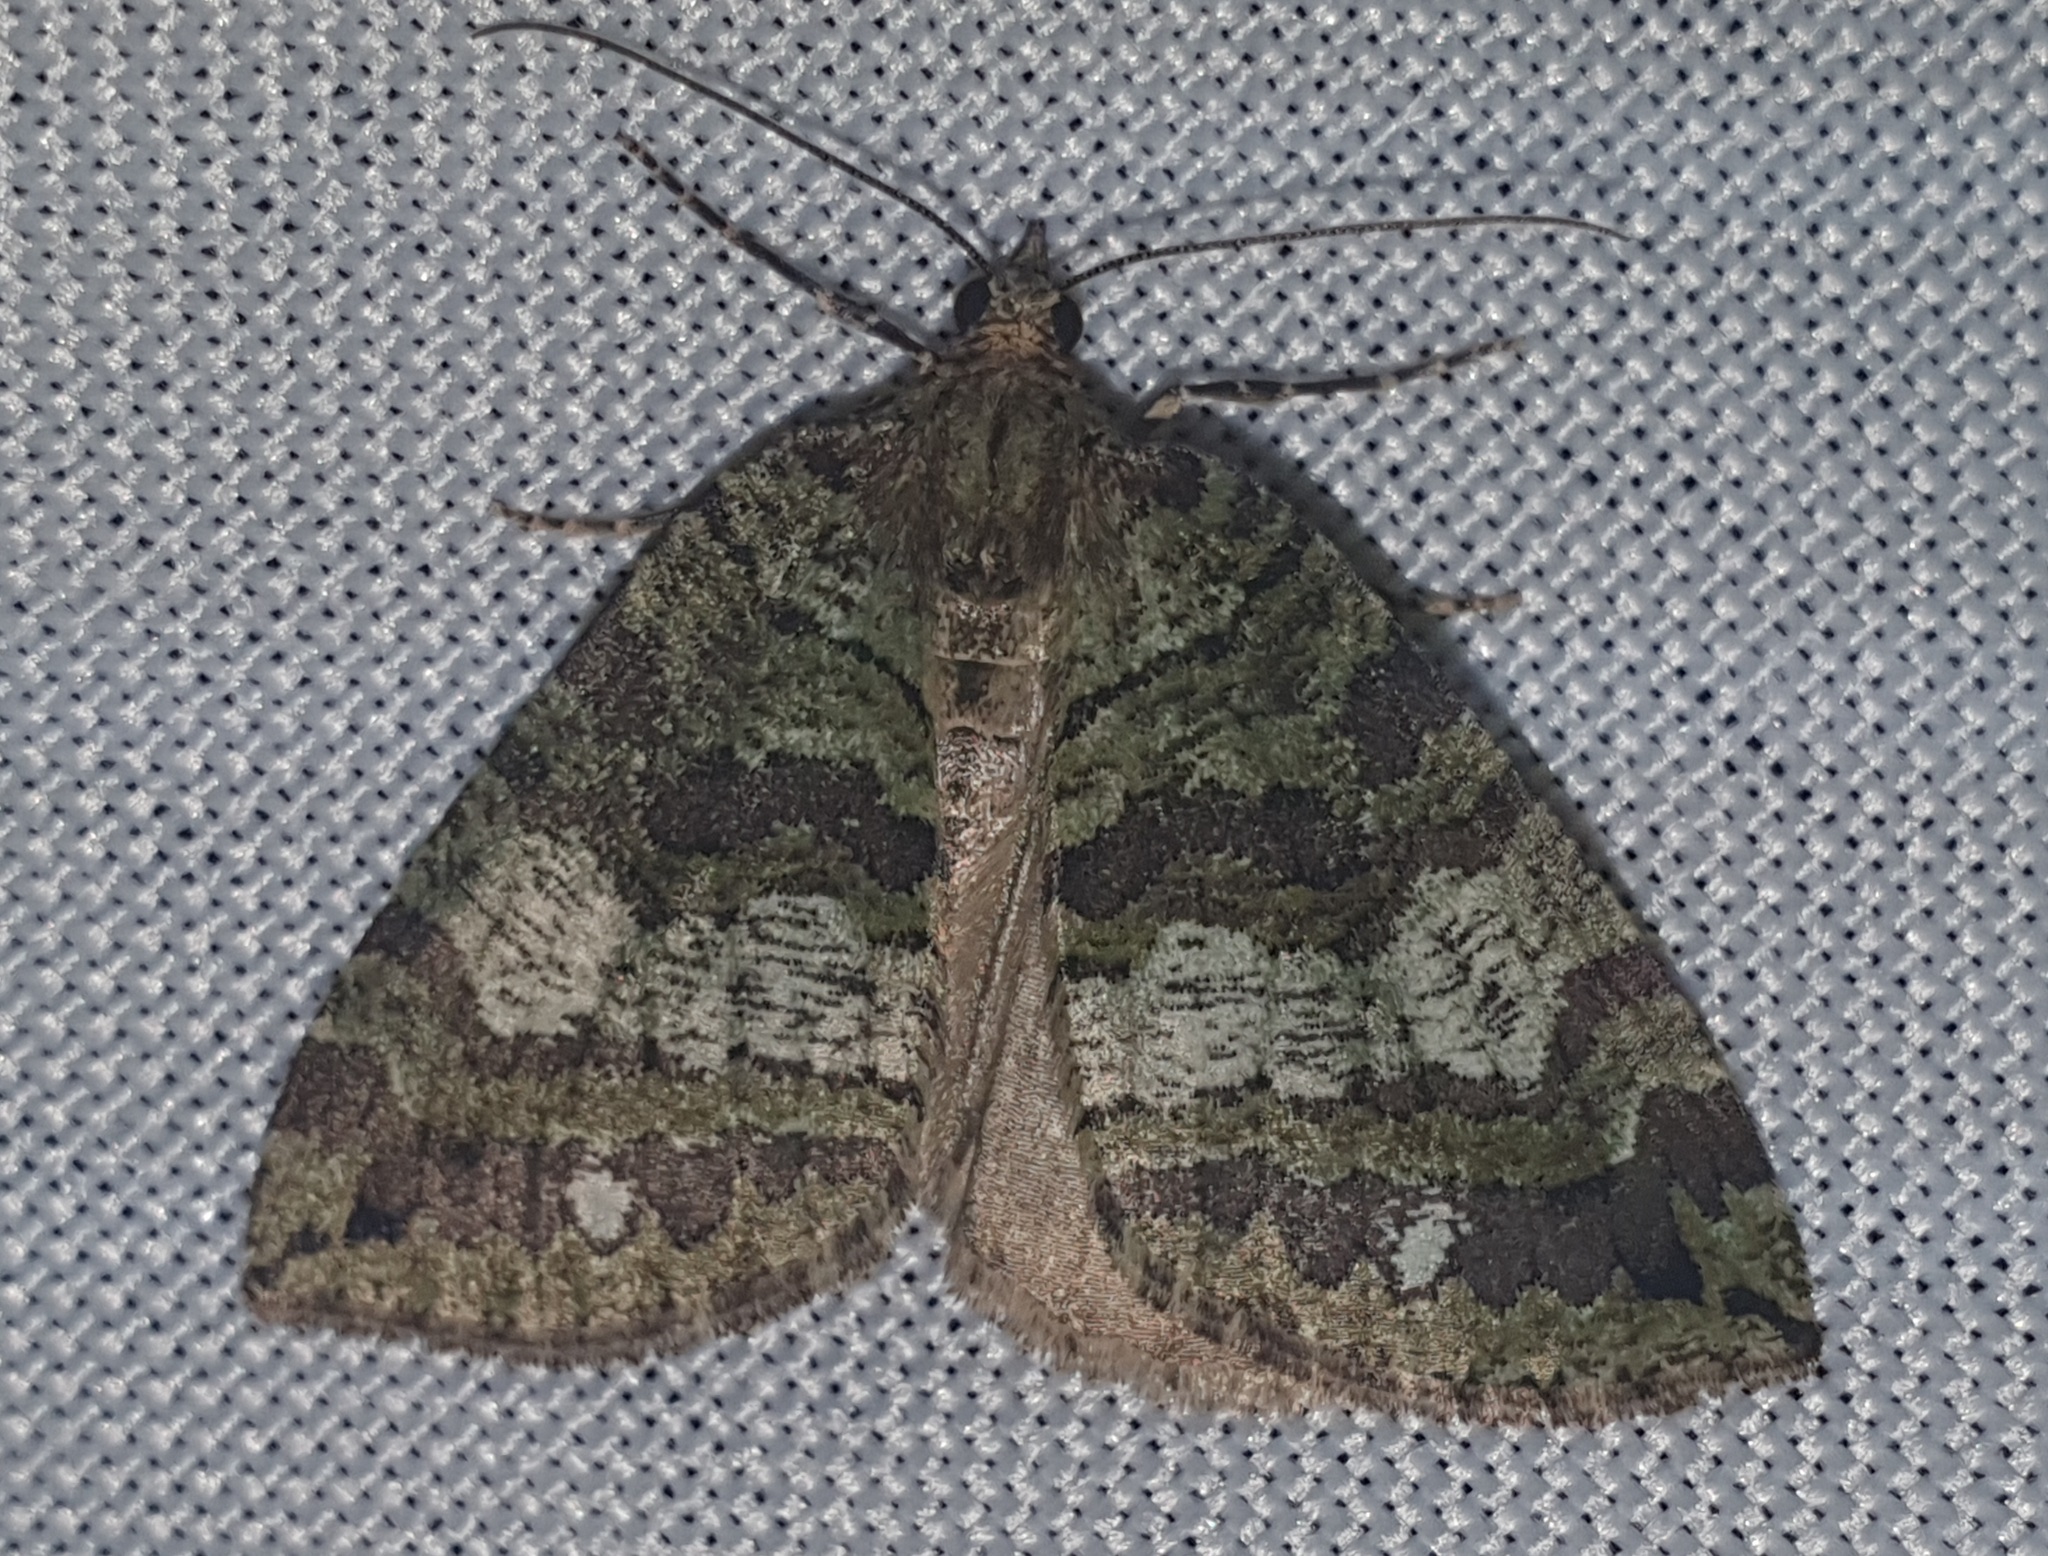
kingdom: Animalia
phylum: Arthropoda
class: Insecta
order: Lepidoptera
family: Geometridae
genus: Hydriomena
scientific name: Hydriomena furcata
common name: July highflyer
